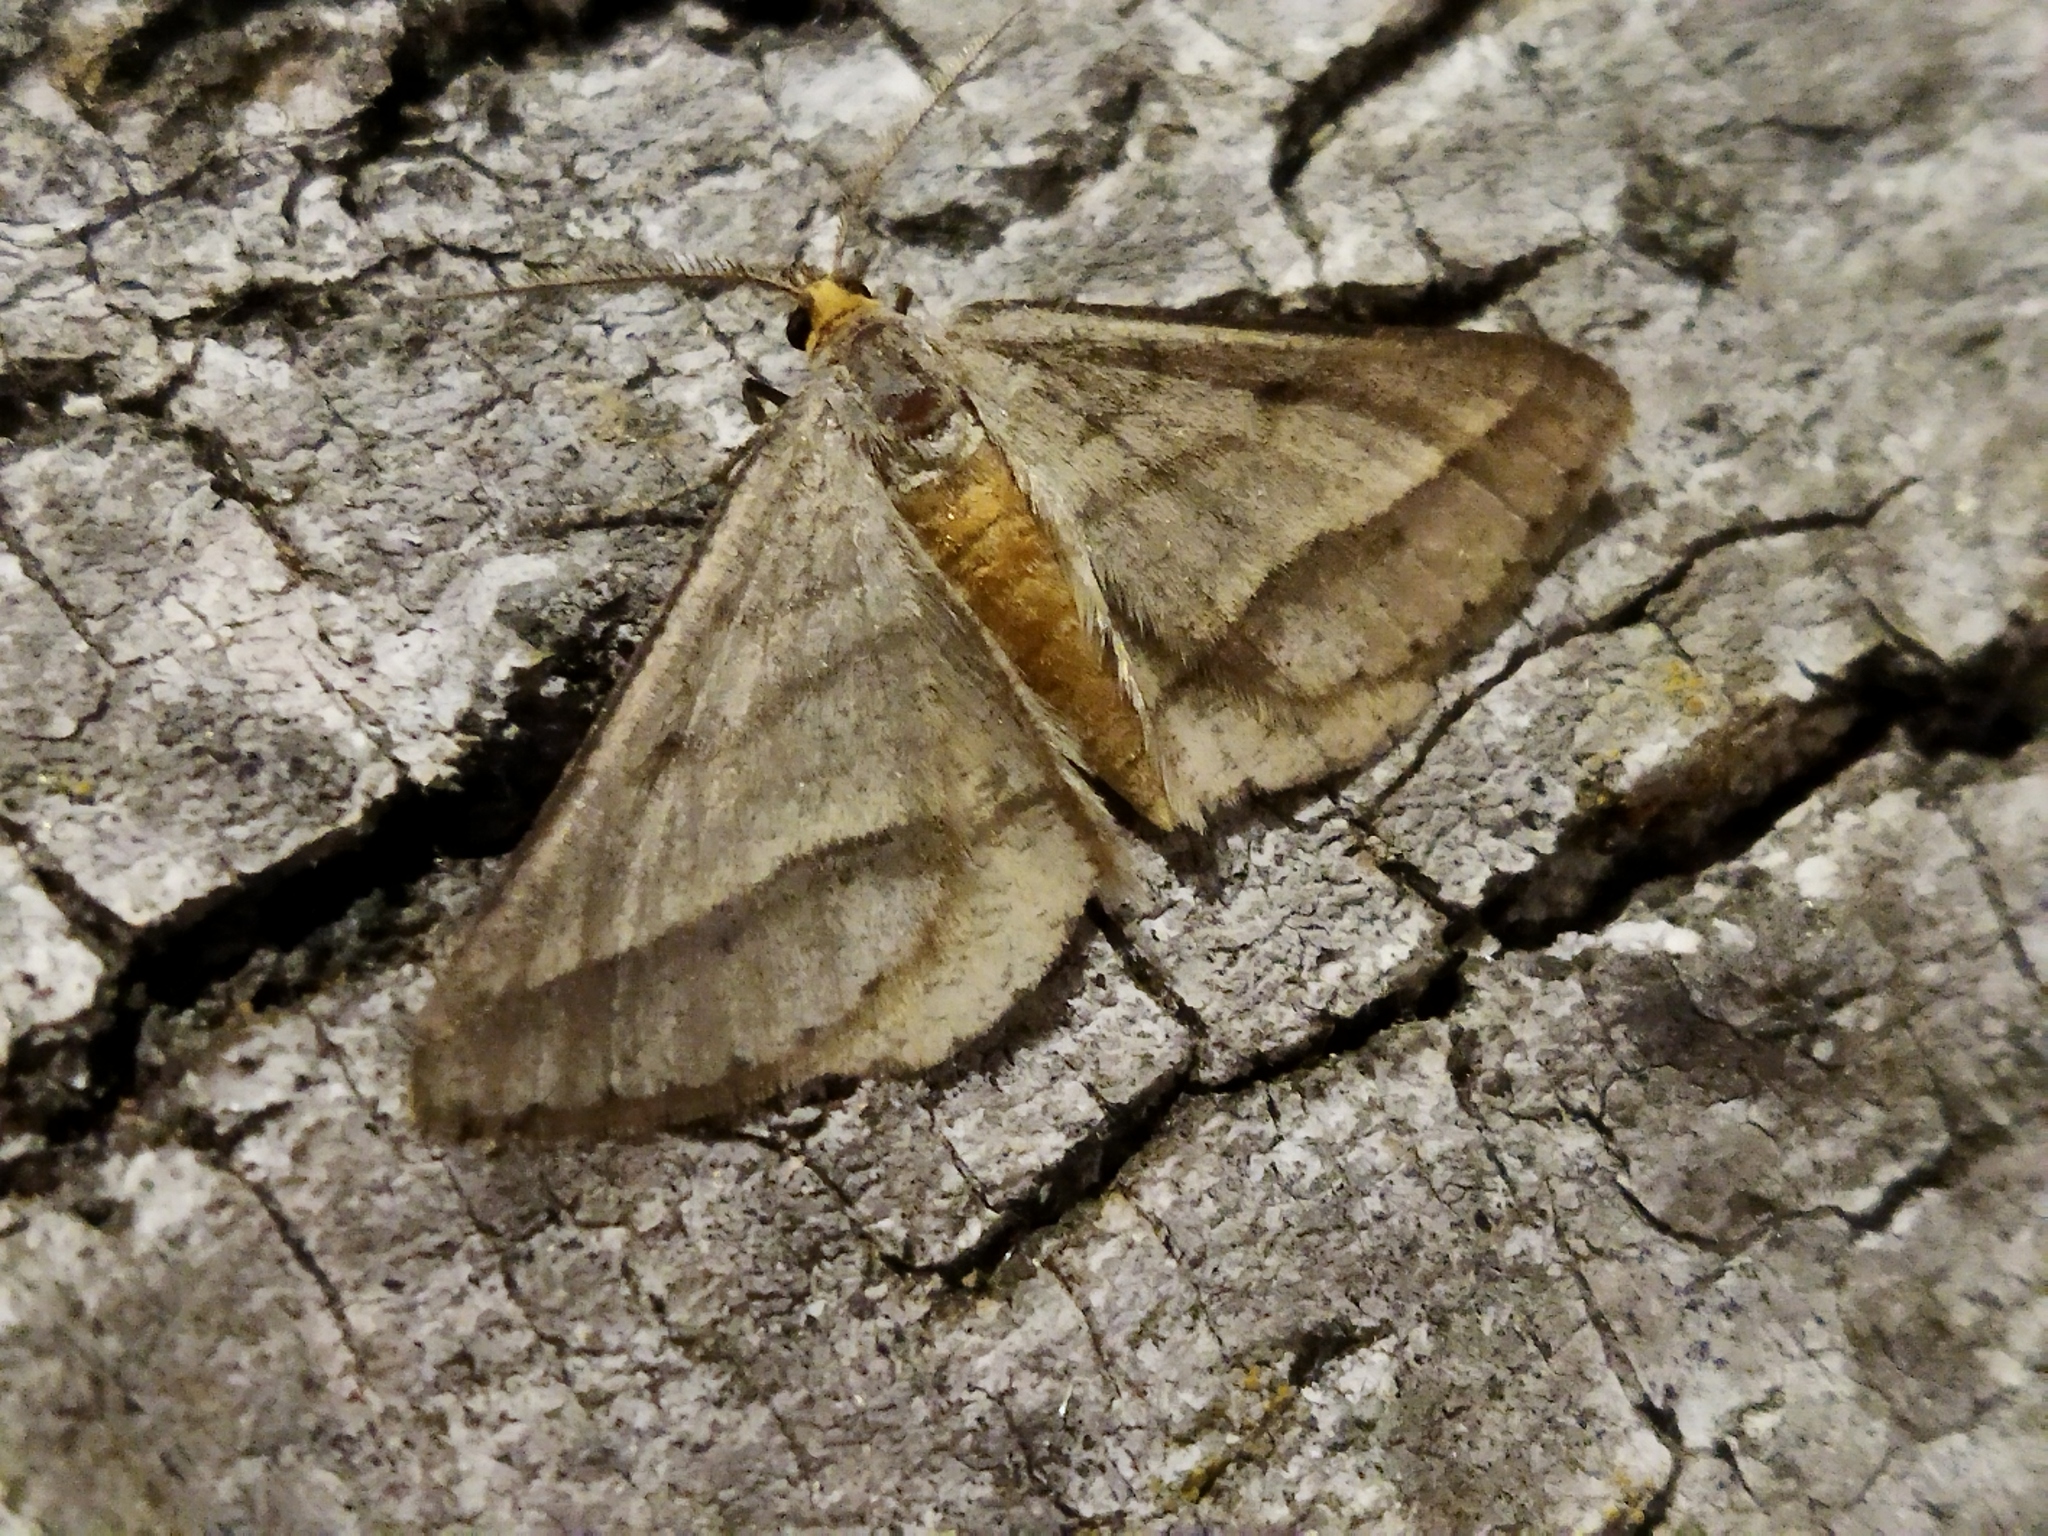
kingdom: Animalia
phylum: Arthropoda
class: Insecta
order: Lepidoptera
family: Geometridae
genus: Tephrina
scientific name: Tephrina arenacearia
